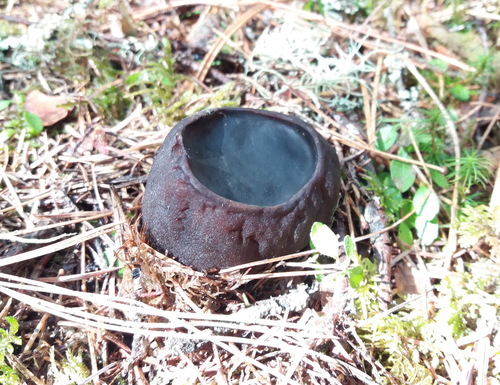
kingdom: Fungi
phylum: Ascomycota
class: Pezizomycetes
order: Pezizales
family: Sarcosomataceae
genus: Sarcosoma
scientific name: Sarcosoma globosum
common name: Charred-pancake cup
